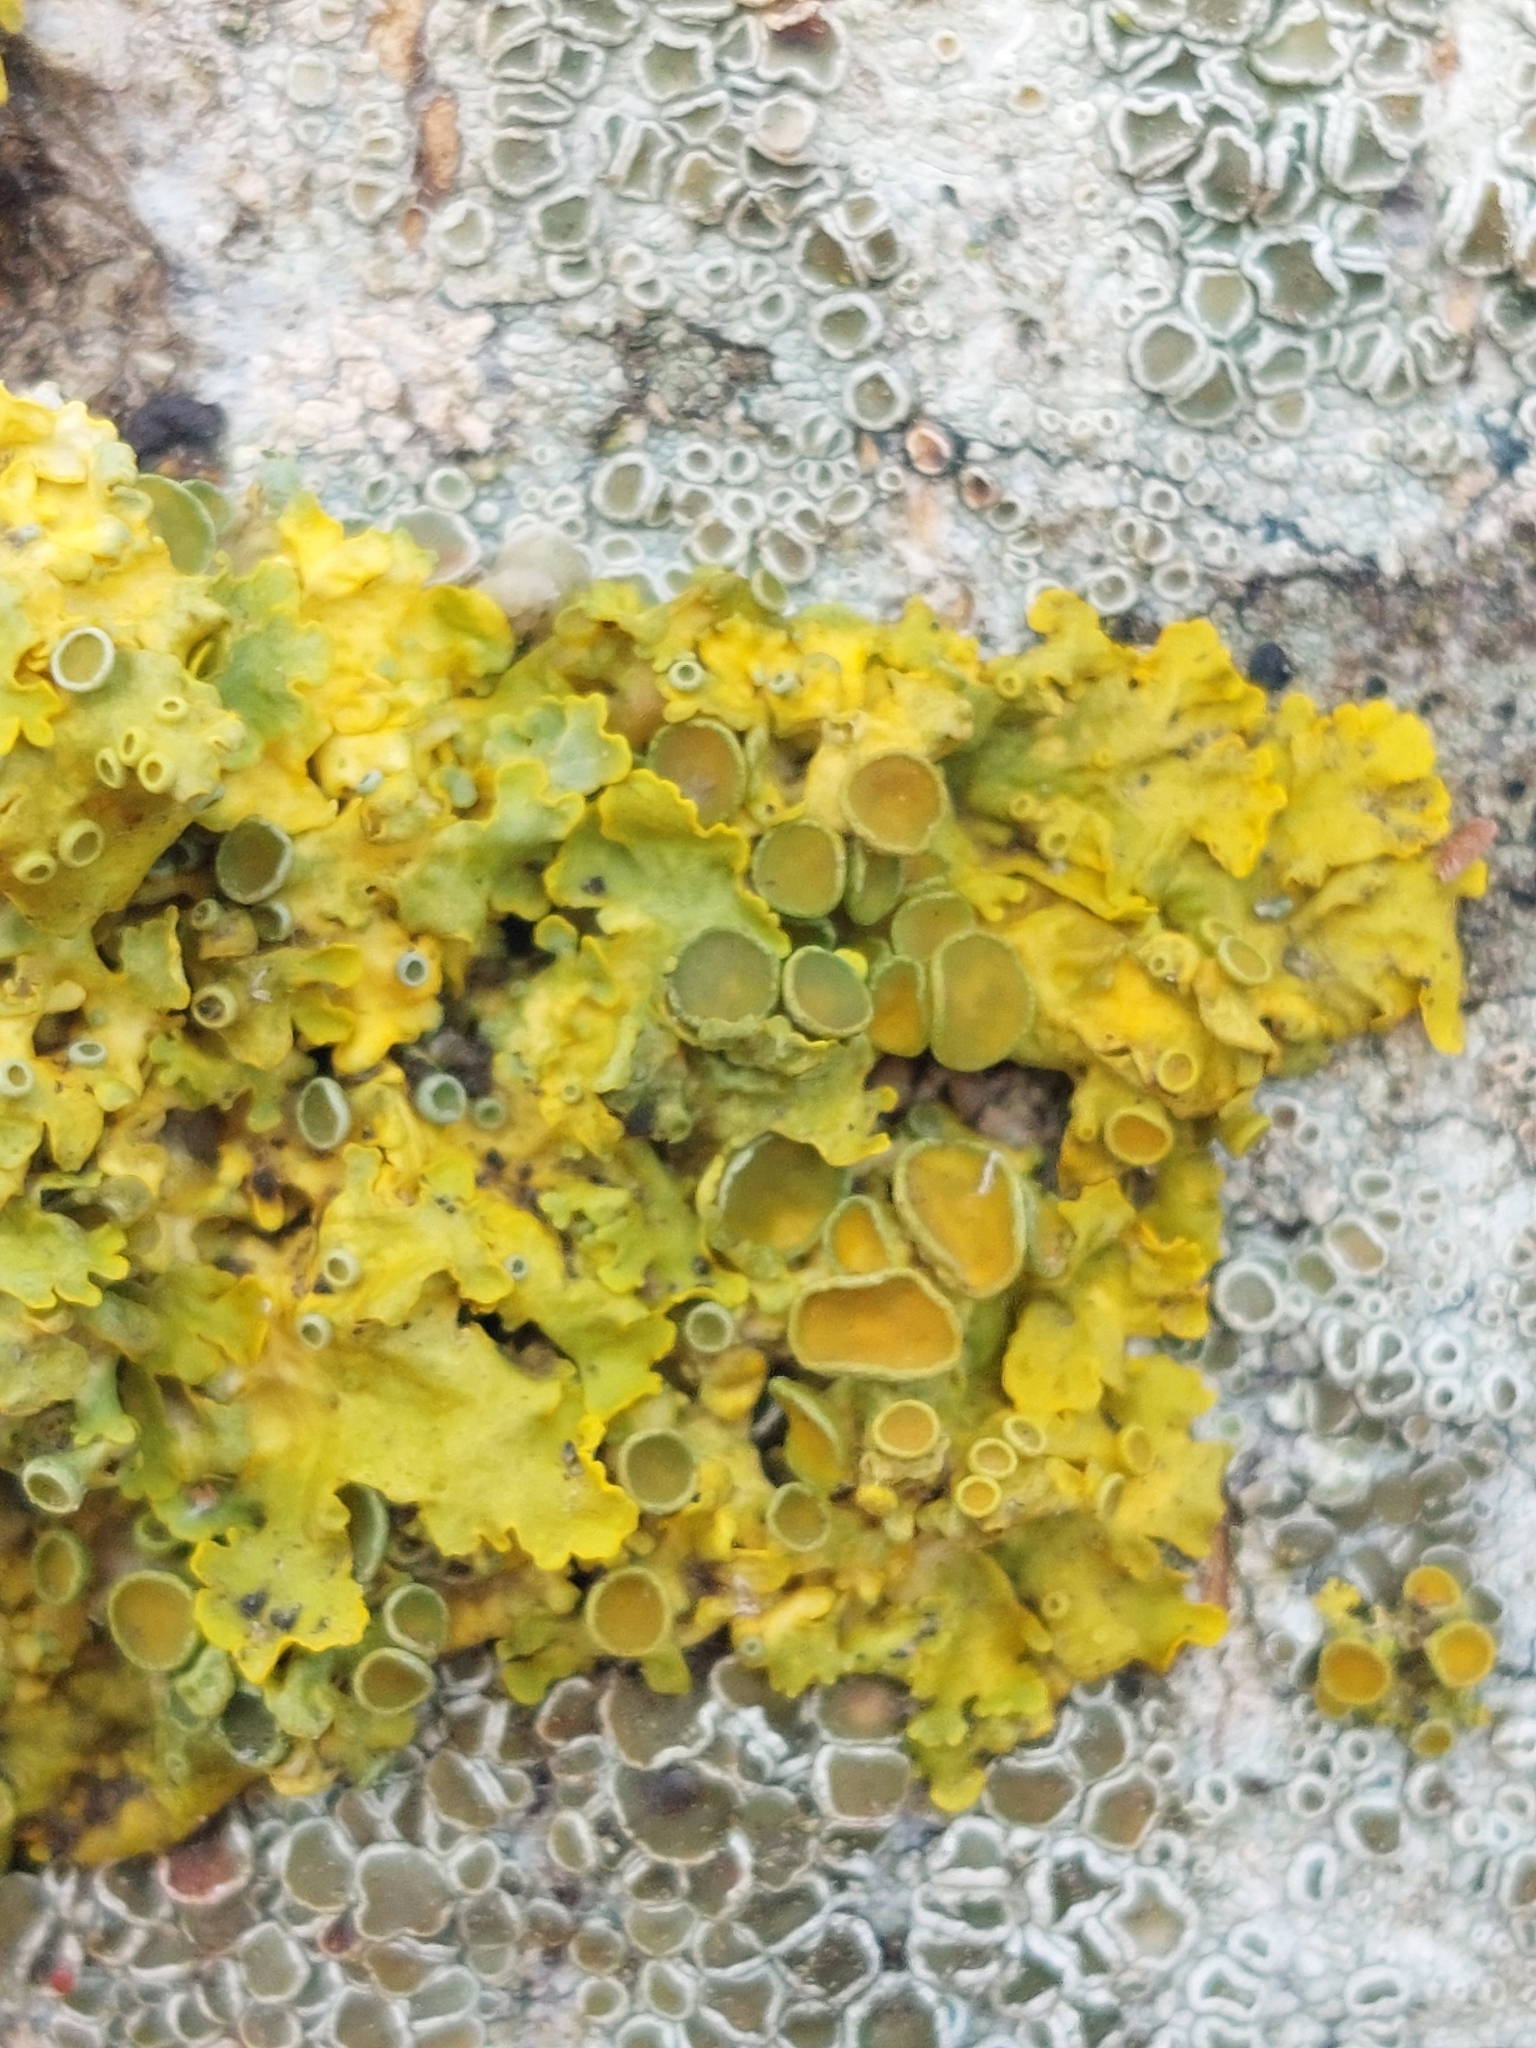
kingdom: Fungi
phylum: Ascomycota
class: Lecanoromycetes
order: Teloschistales
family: Teloschistaceae
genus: Xanthoria
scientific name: Xanthoria parietina
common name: Common orange lichen
